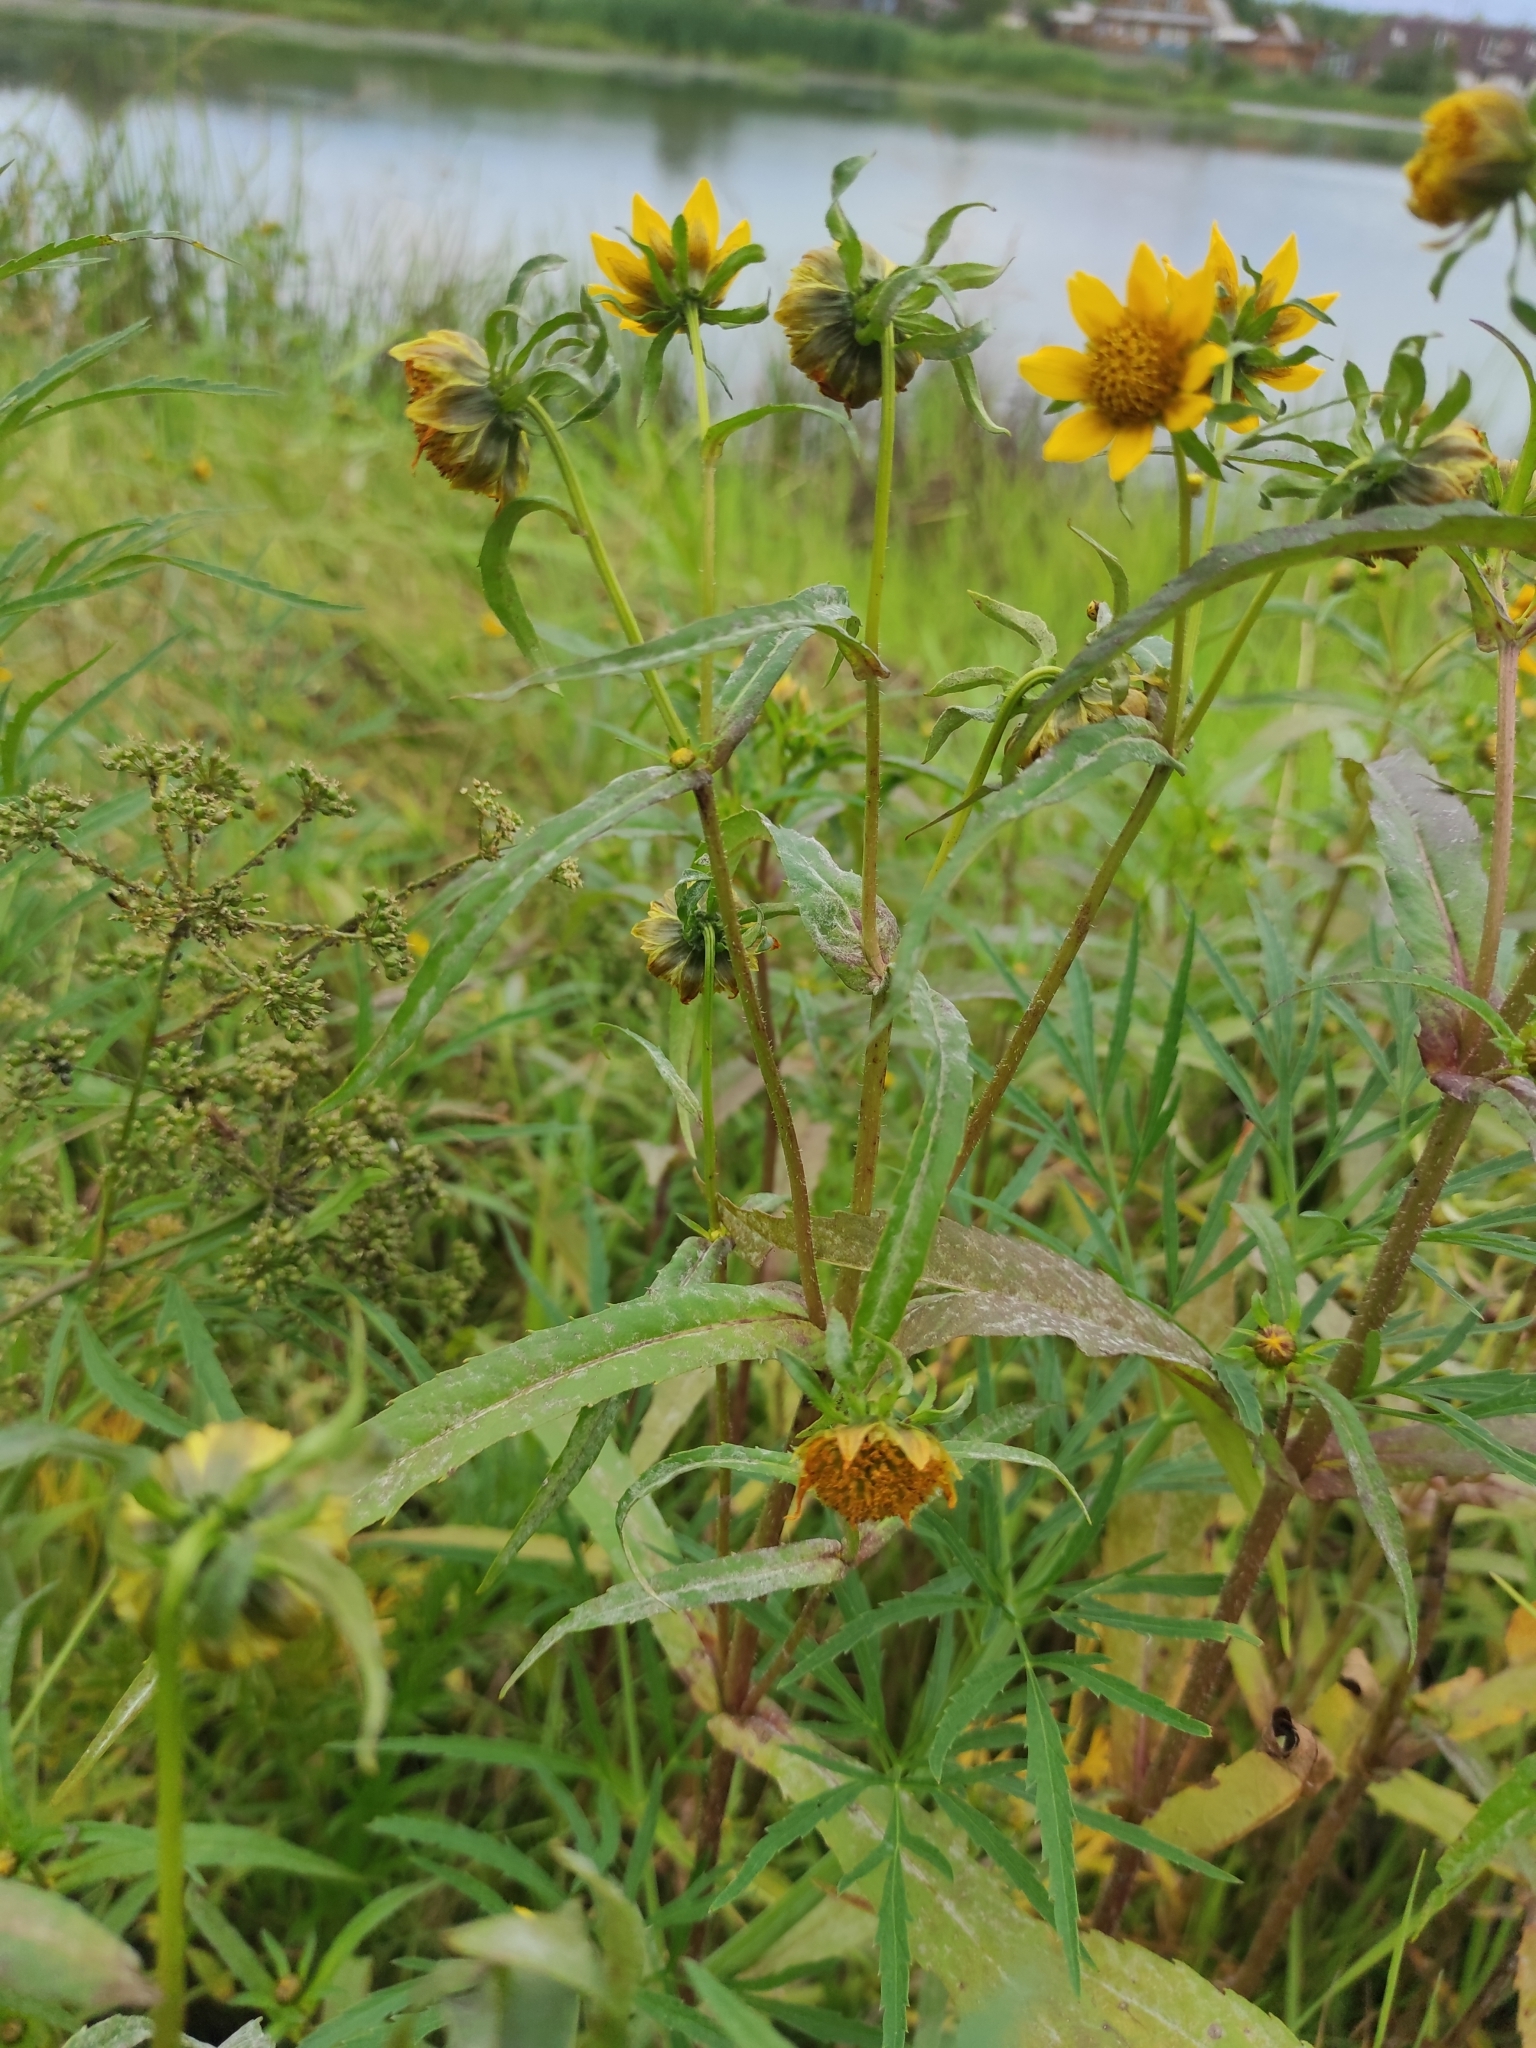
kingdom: Plantae
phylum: Tracheophyta
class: Magnoliopsida
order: Asterales
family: Asteraceae
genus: Bidens
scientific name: Bidens cernua
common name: Nodding bur-marigold
